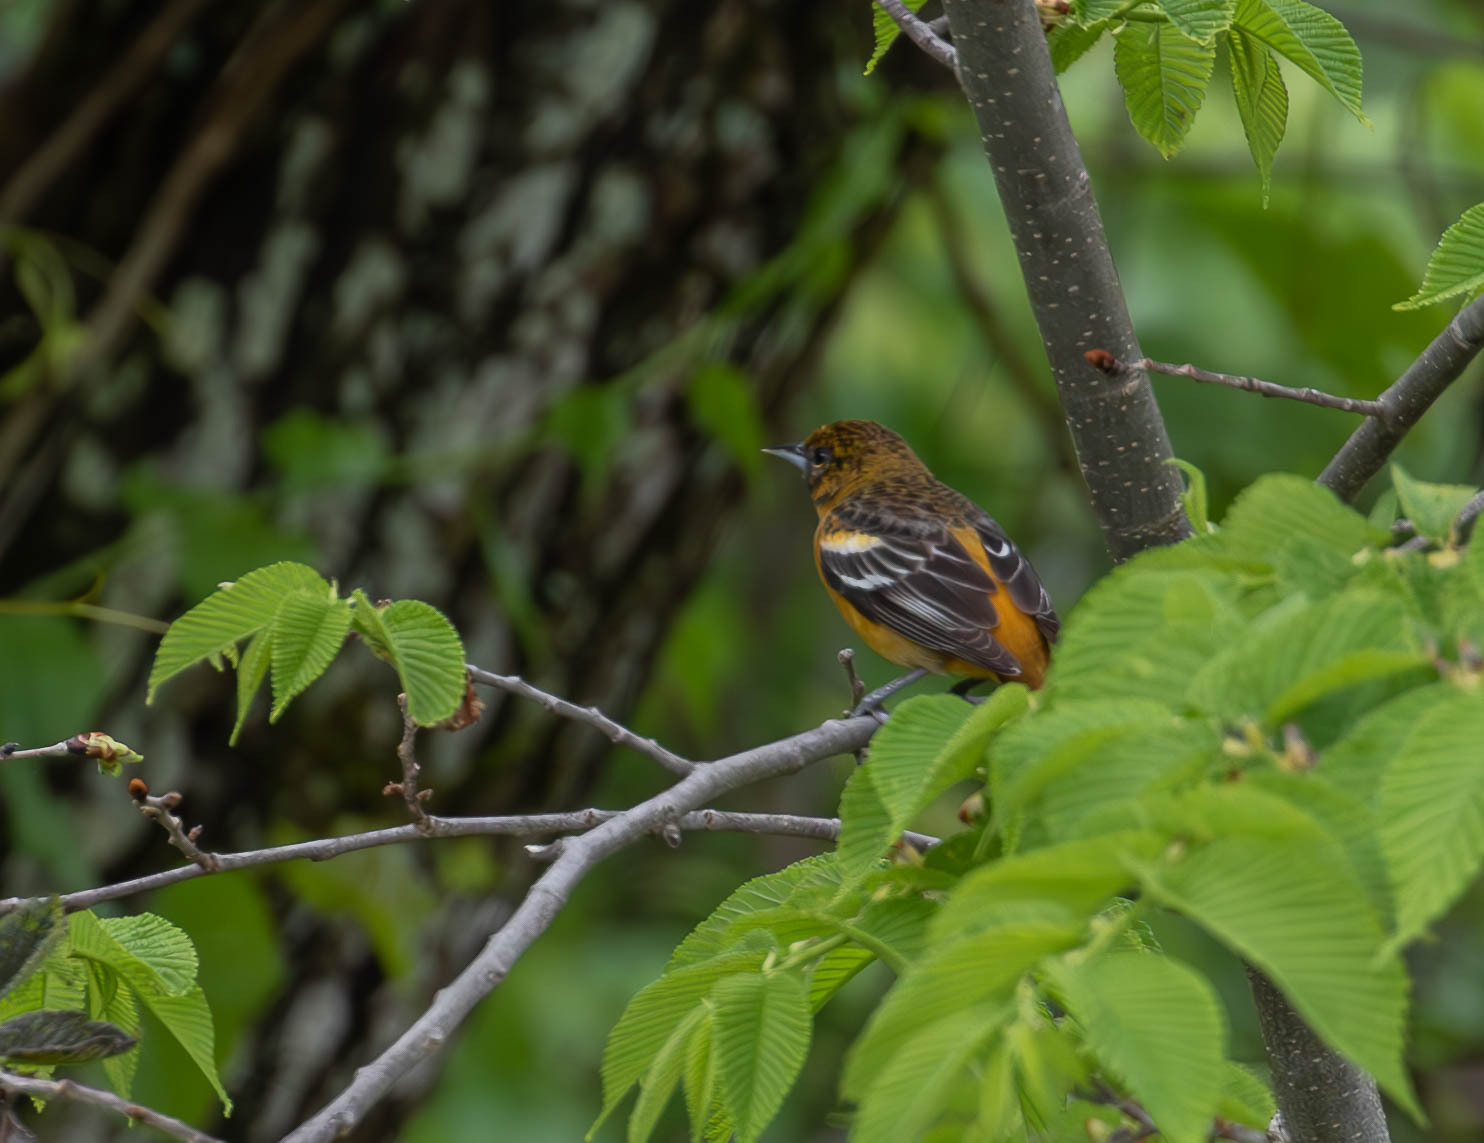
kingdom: Animalia
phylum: Chordata
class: Aves
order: Passeriformes
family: Icteridae
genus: Icterus
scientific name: Icterus galbula
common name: Baltimore oriole
